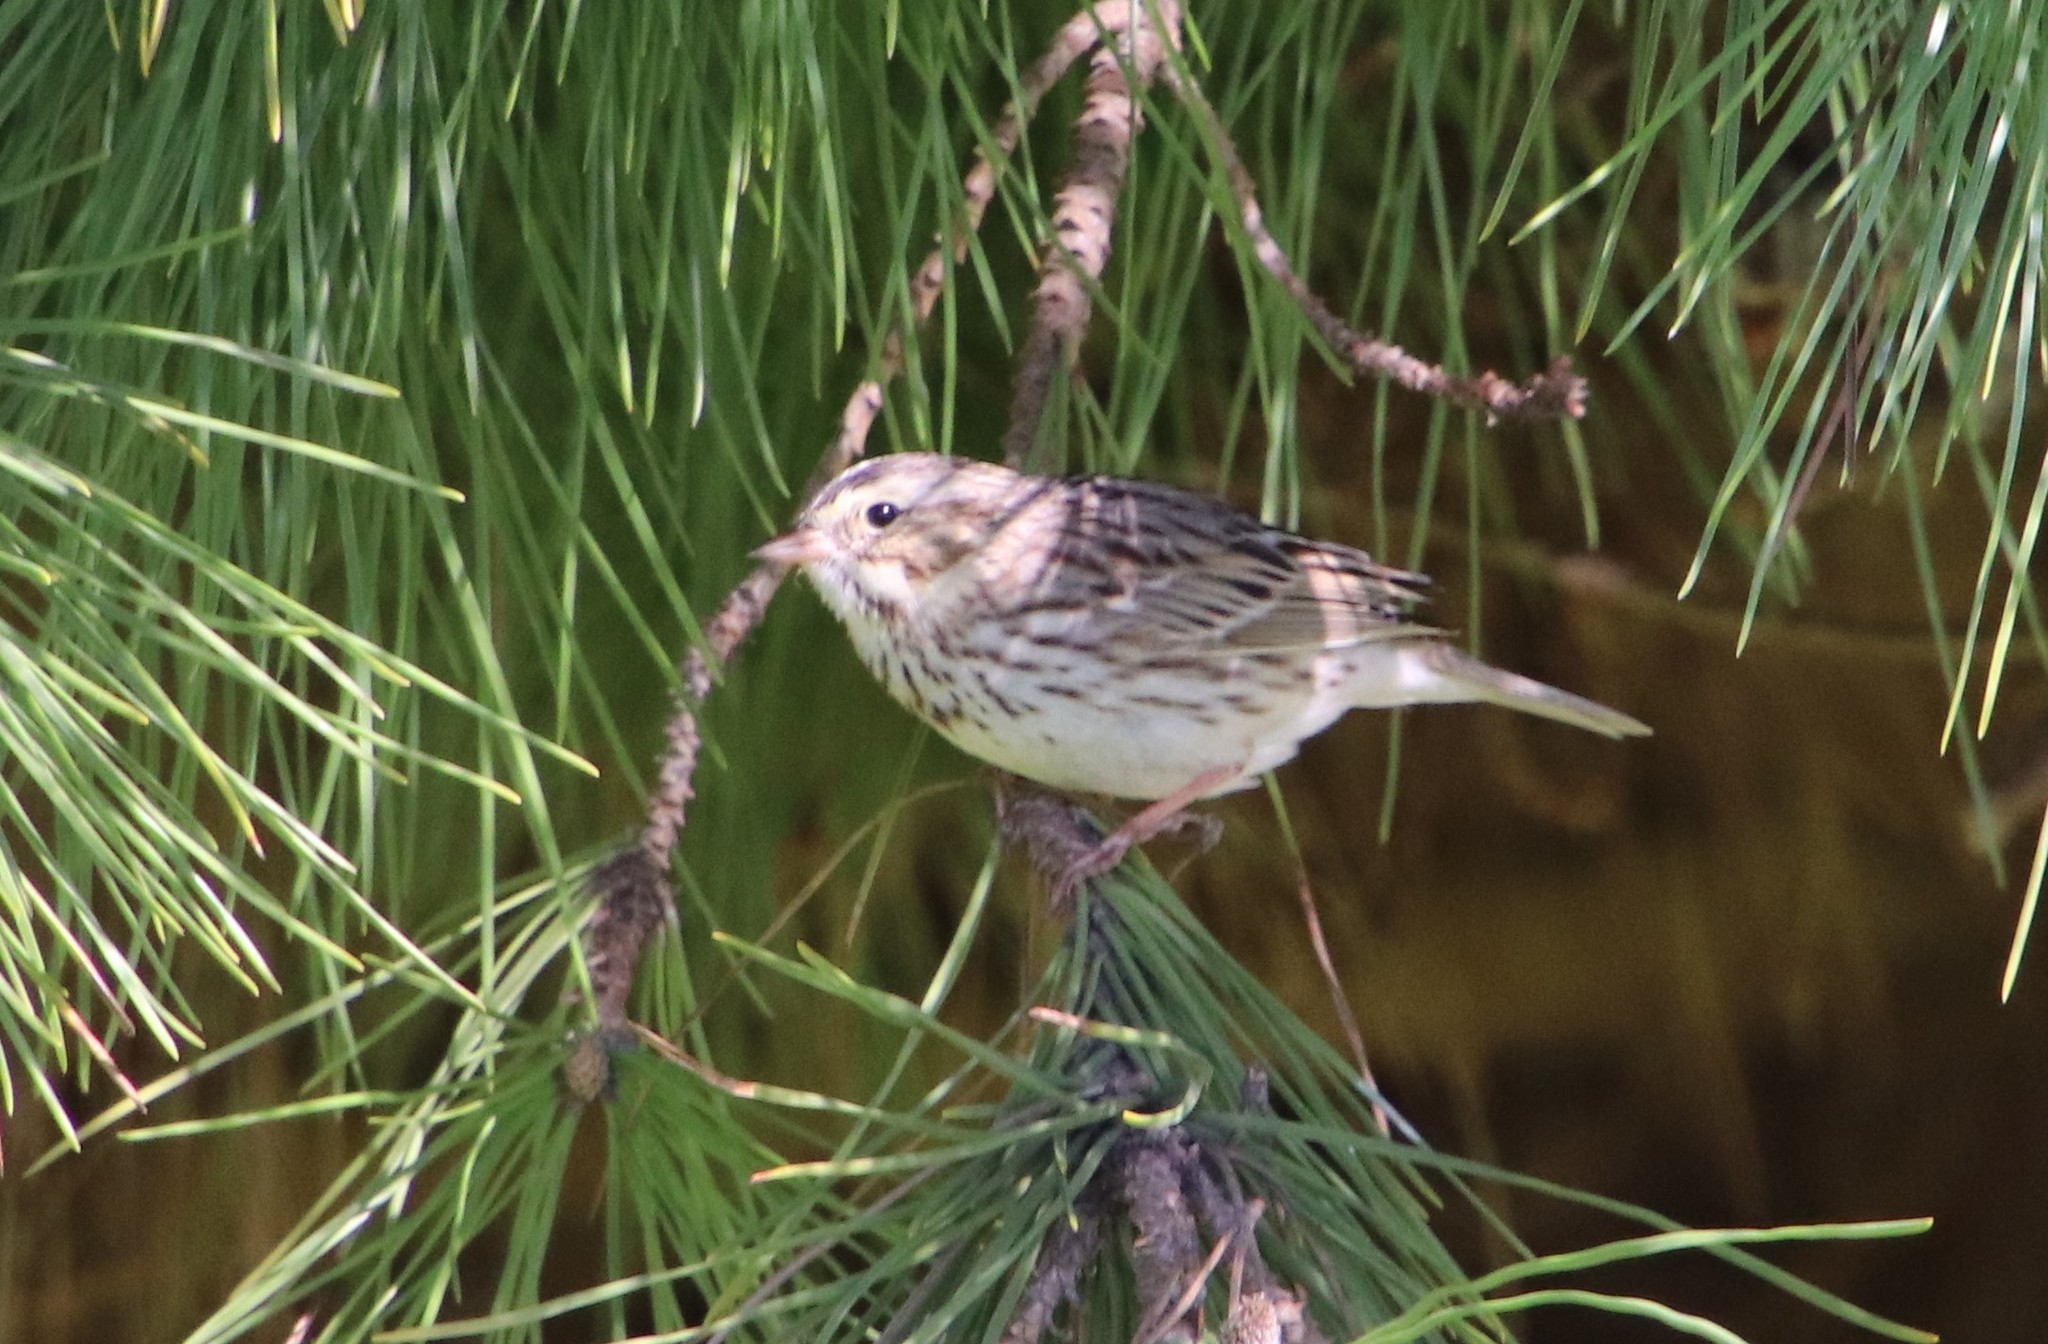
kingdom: Animalia
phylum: Chordata
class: Aves
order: Passeriformes
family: Passerellidae
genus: Passerculus
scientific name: Passerculus sandwichensis
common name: Savannah sparrow
